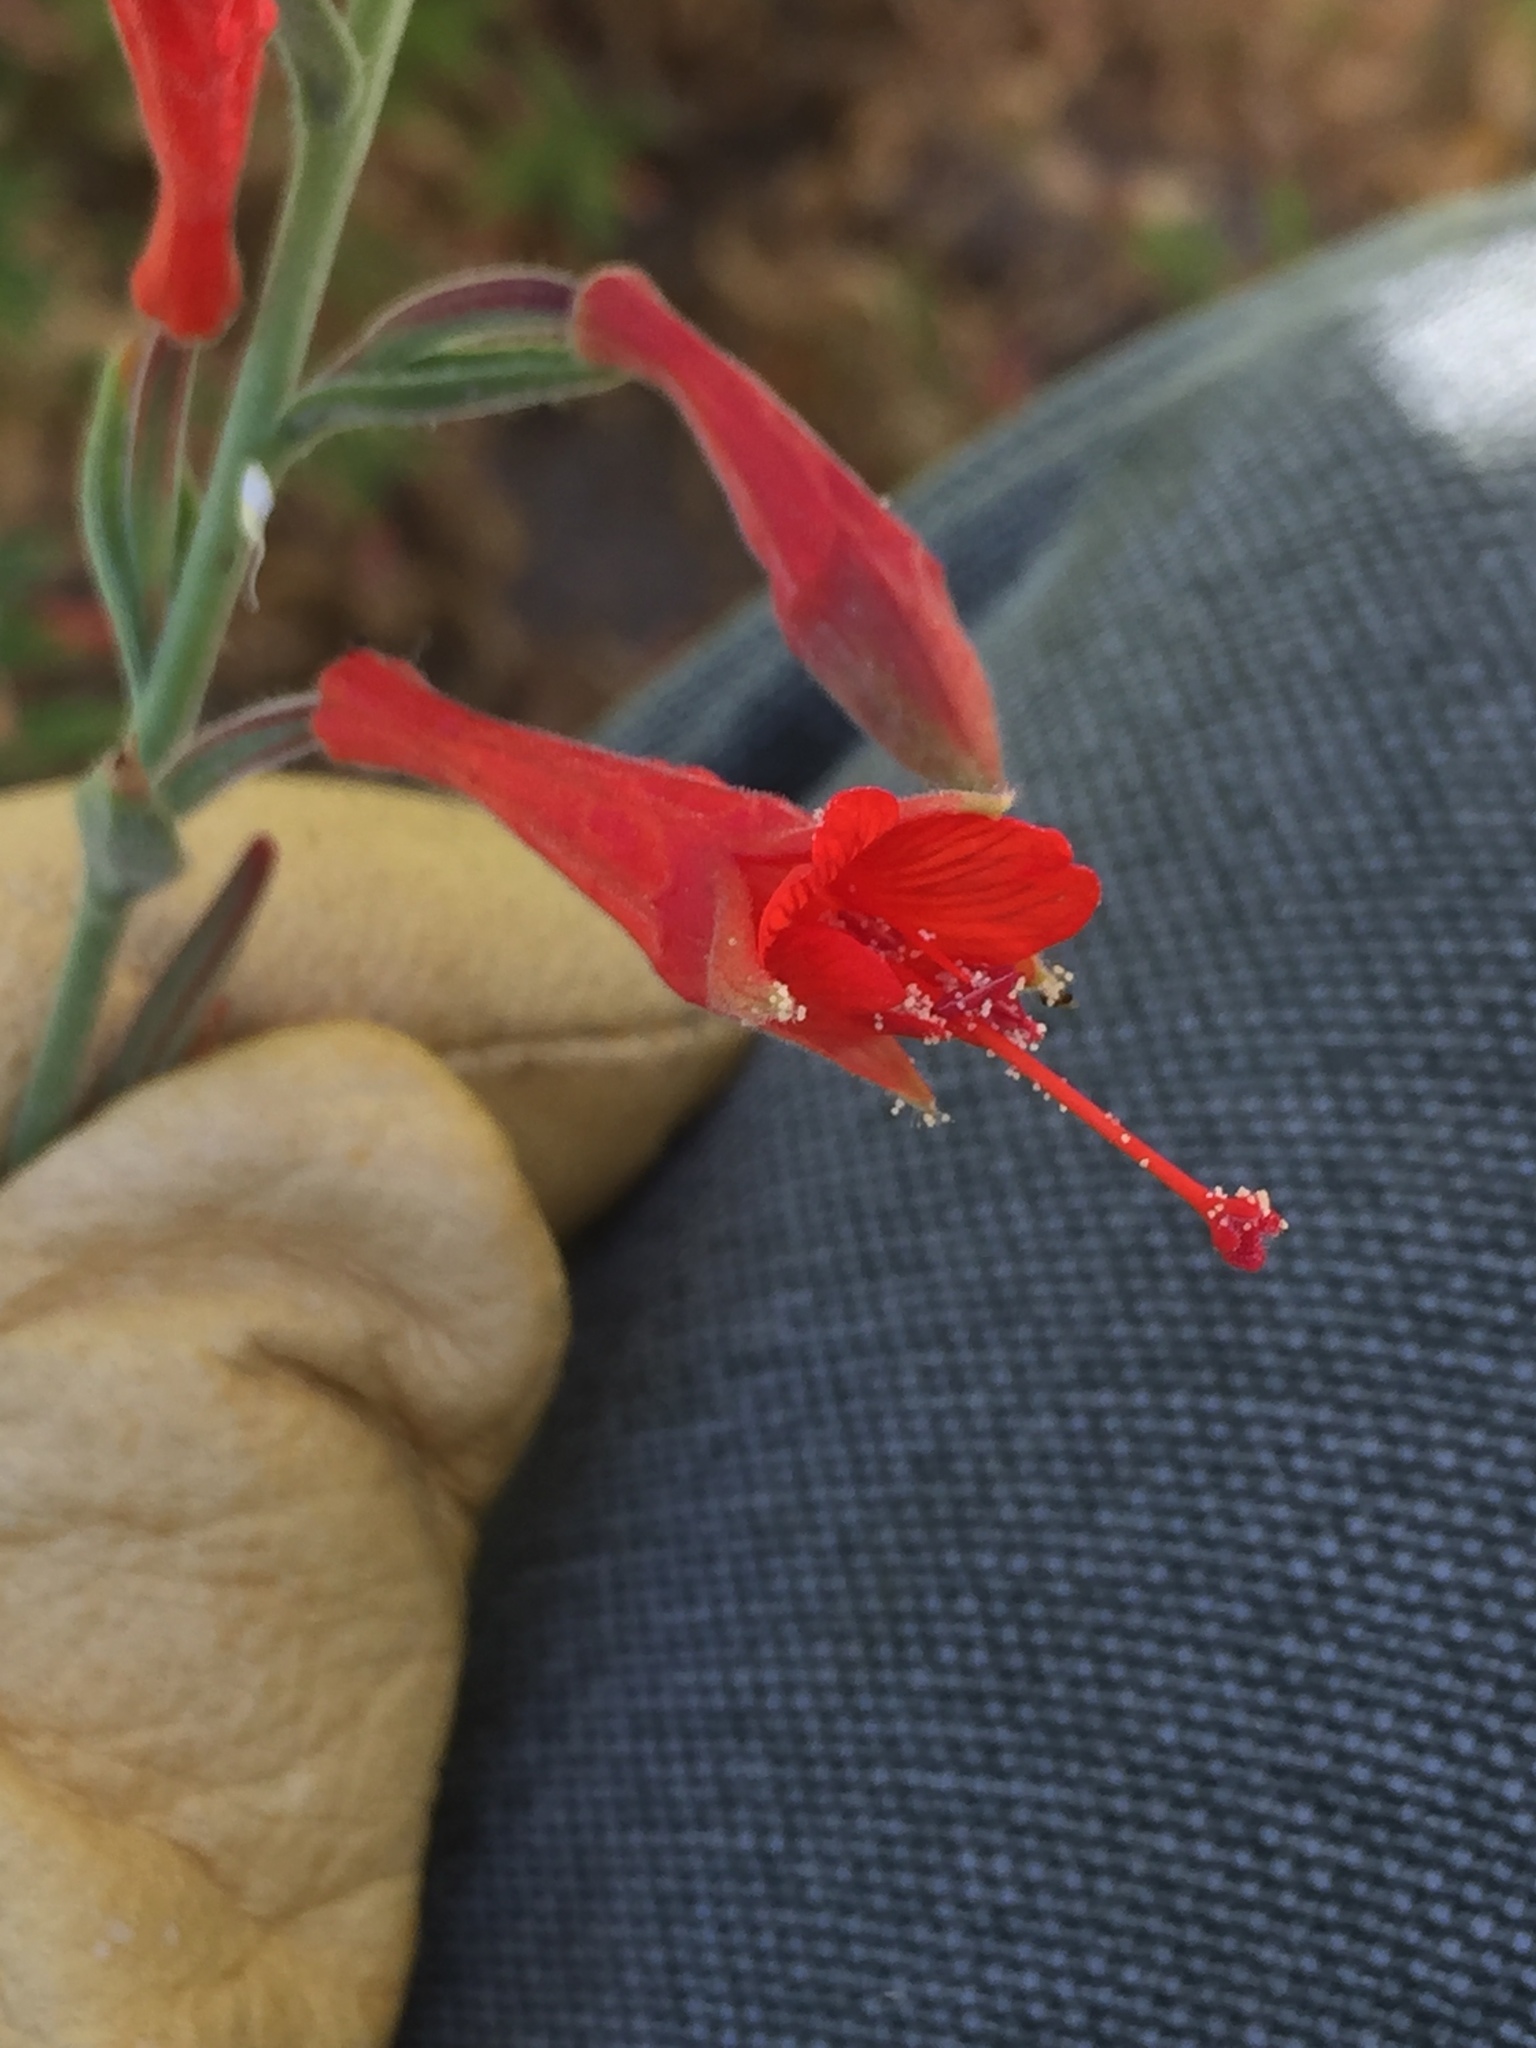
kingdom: Plantae
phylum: Tracheophyta
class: Magnoliopsida
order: Myrtales
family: Onagraceae
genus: Epilobium
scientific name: Epilobium canum
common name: California-fuchsia
